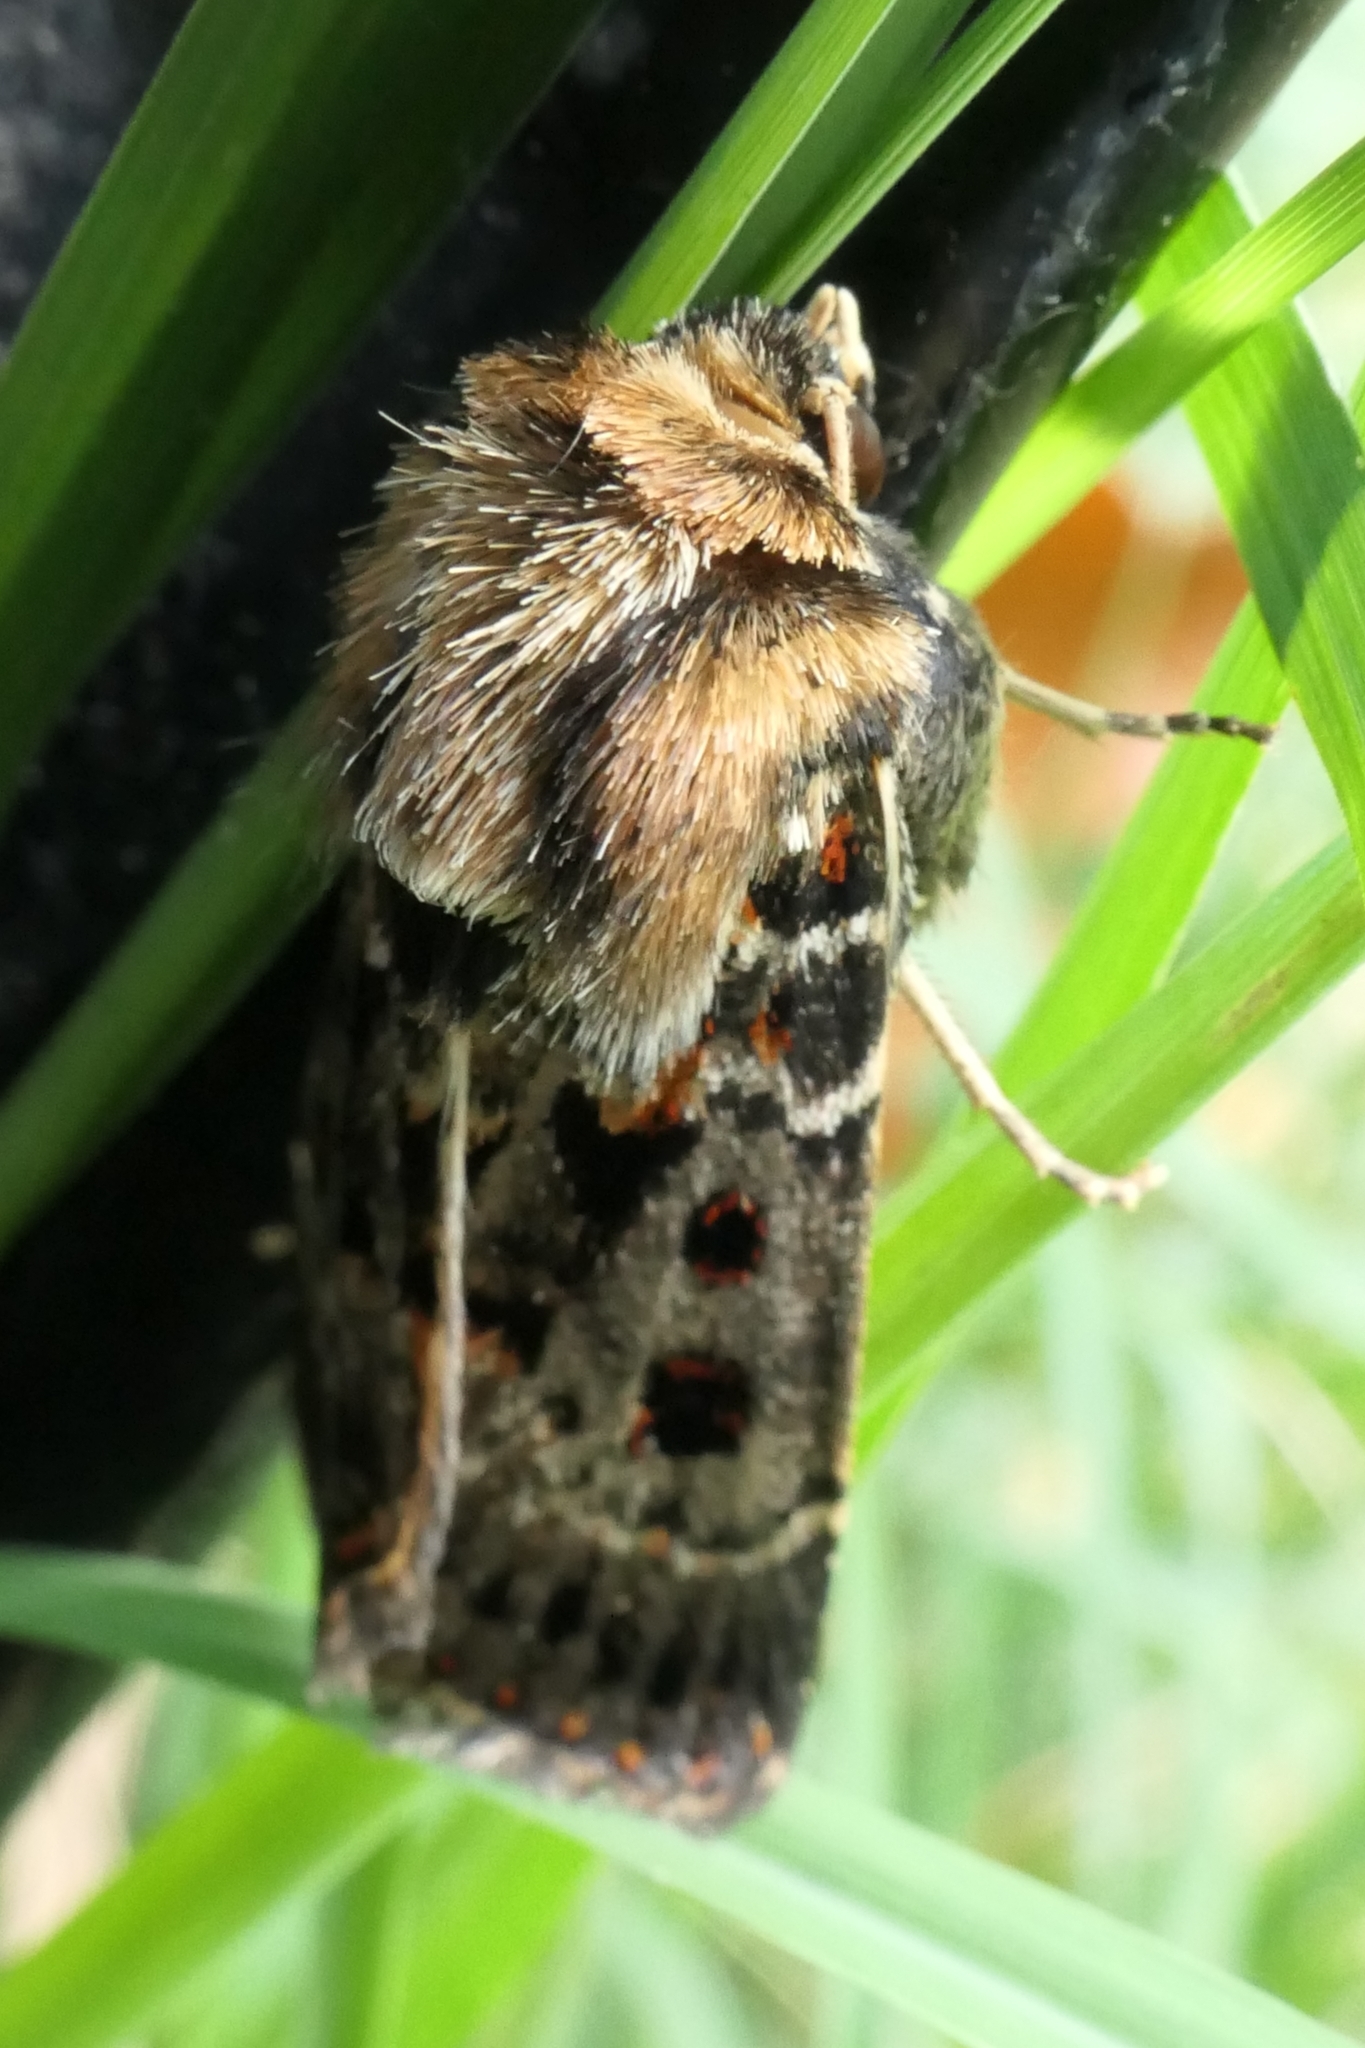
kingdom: Animalia
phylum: Arthropoda
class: Insecta
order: Lepidoptera
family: Noctuidae
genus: Proteuxoa
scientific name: Proteuxoa sanguinipuncta
